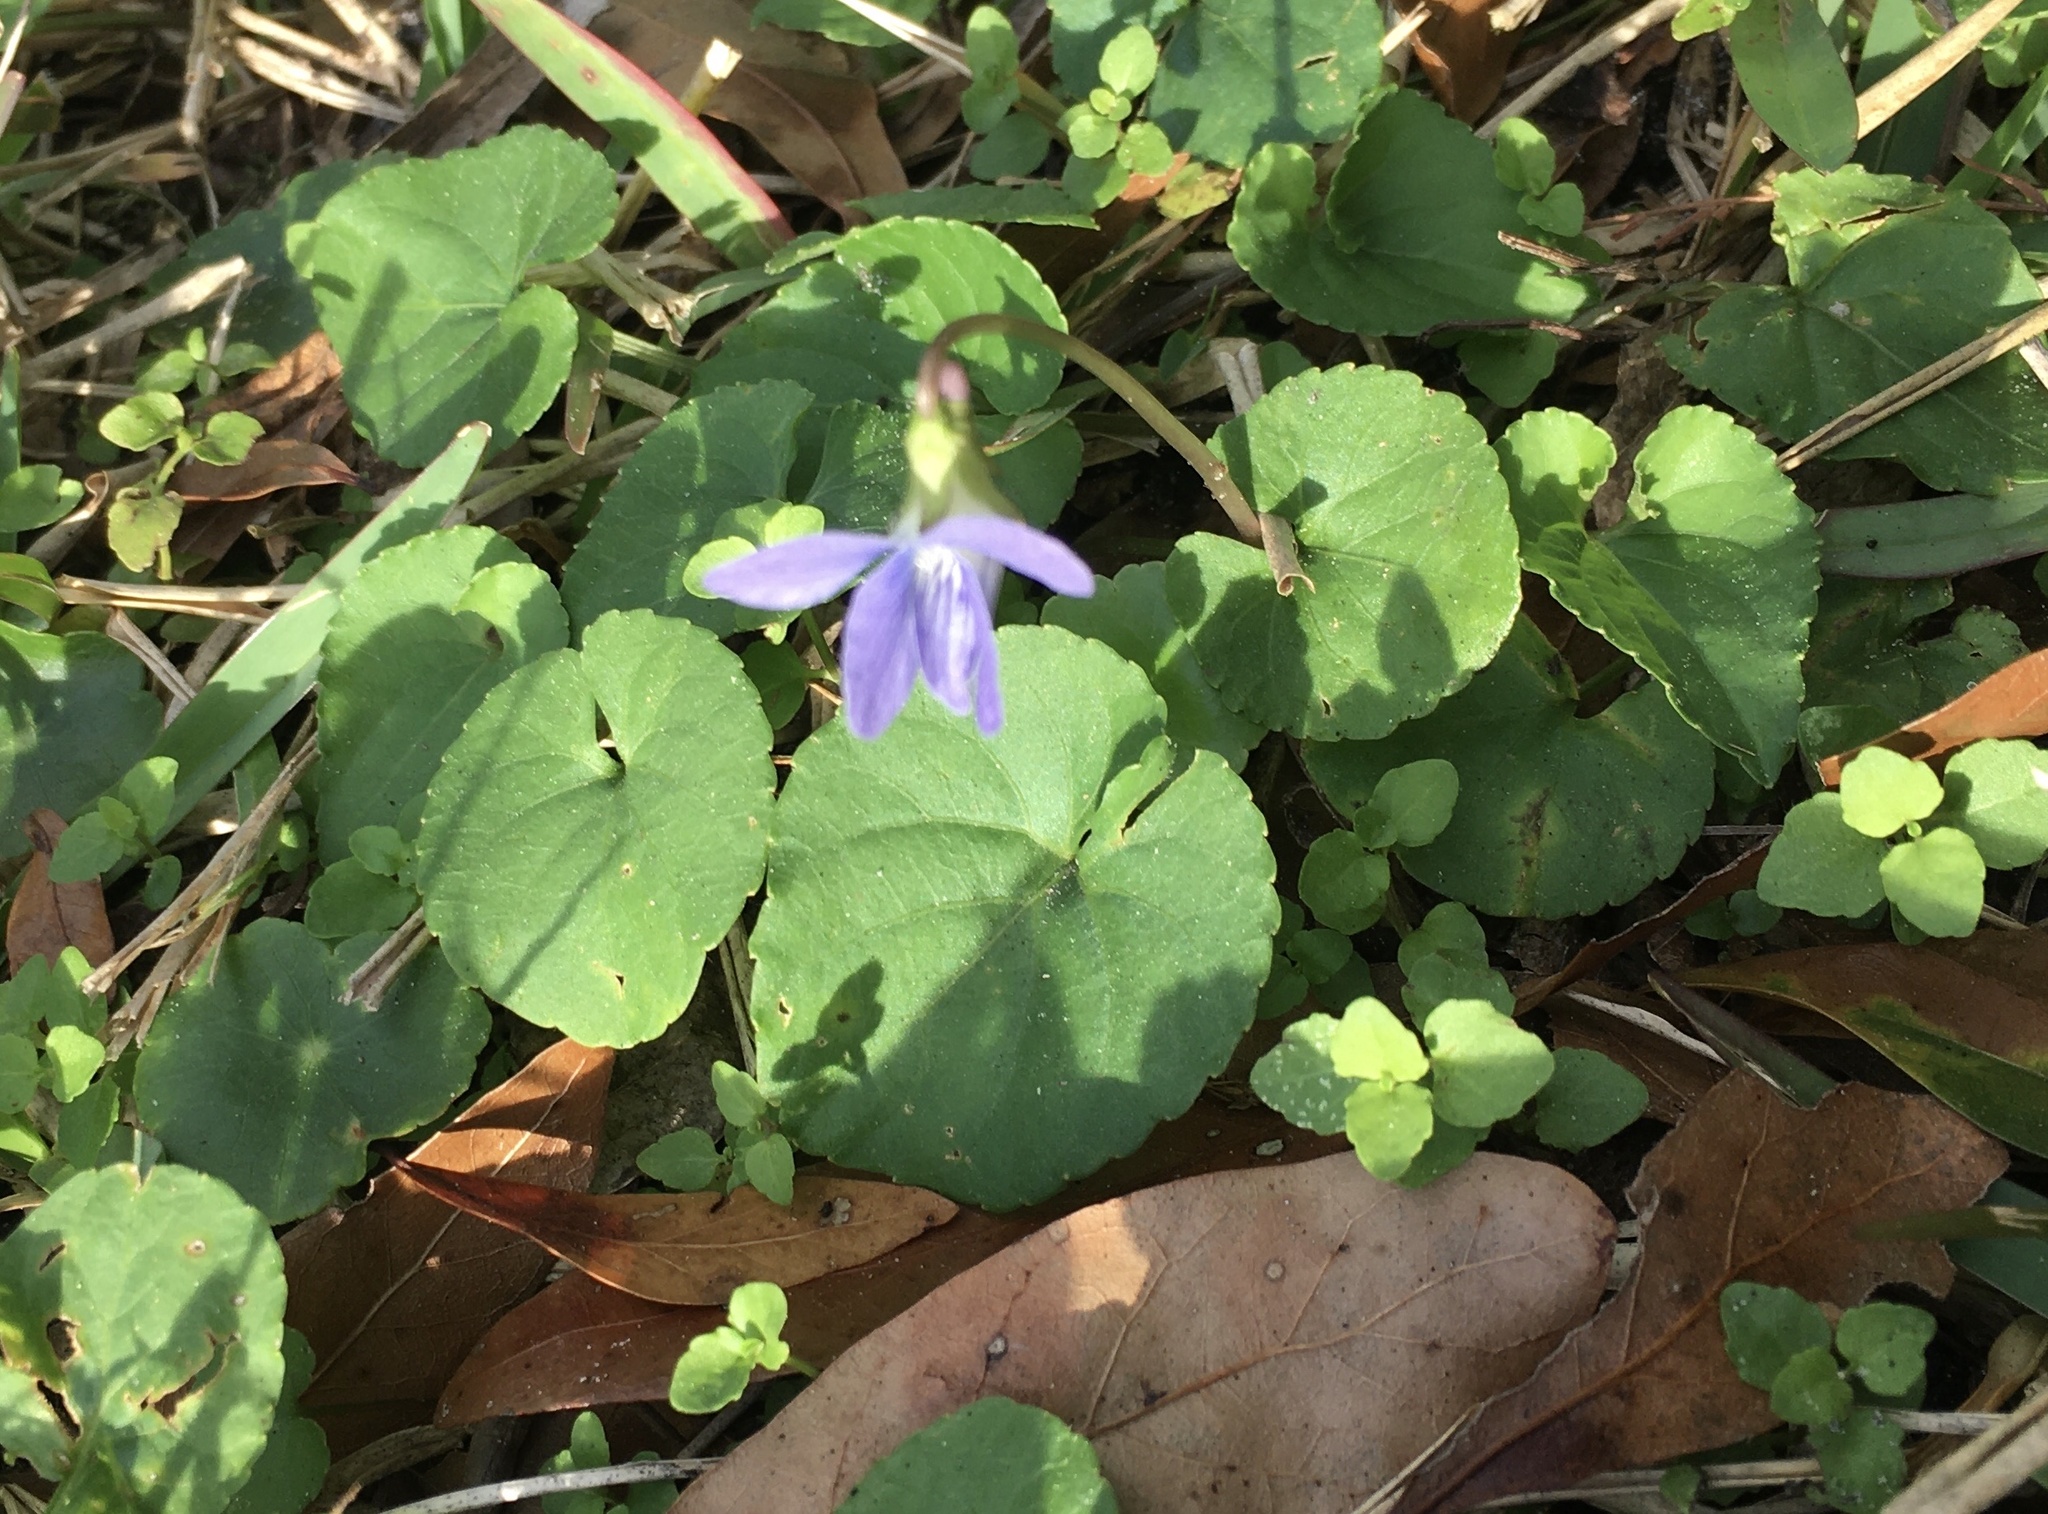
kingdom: Plantae
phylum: Tracheophyta
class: Magnoliopsida
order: Malpighiales
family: Violaceae
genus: Viola
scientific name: Viola sororia
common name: Dooryard violet
